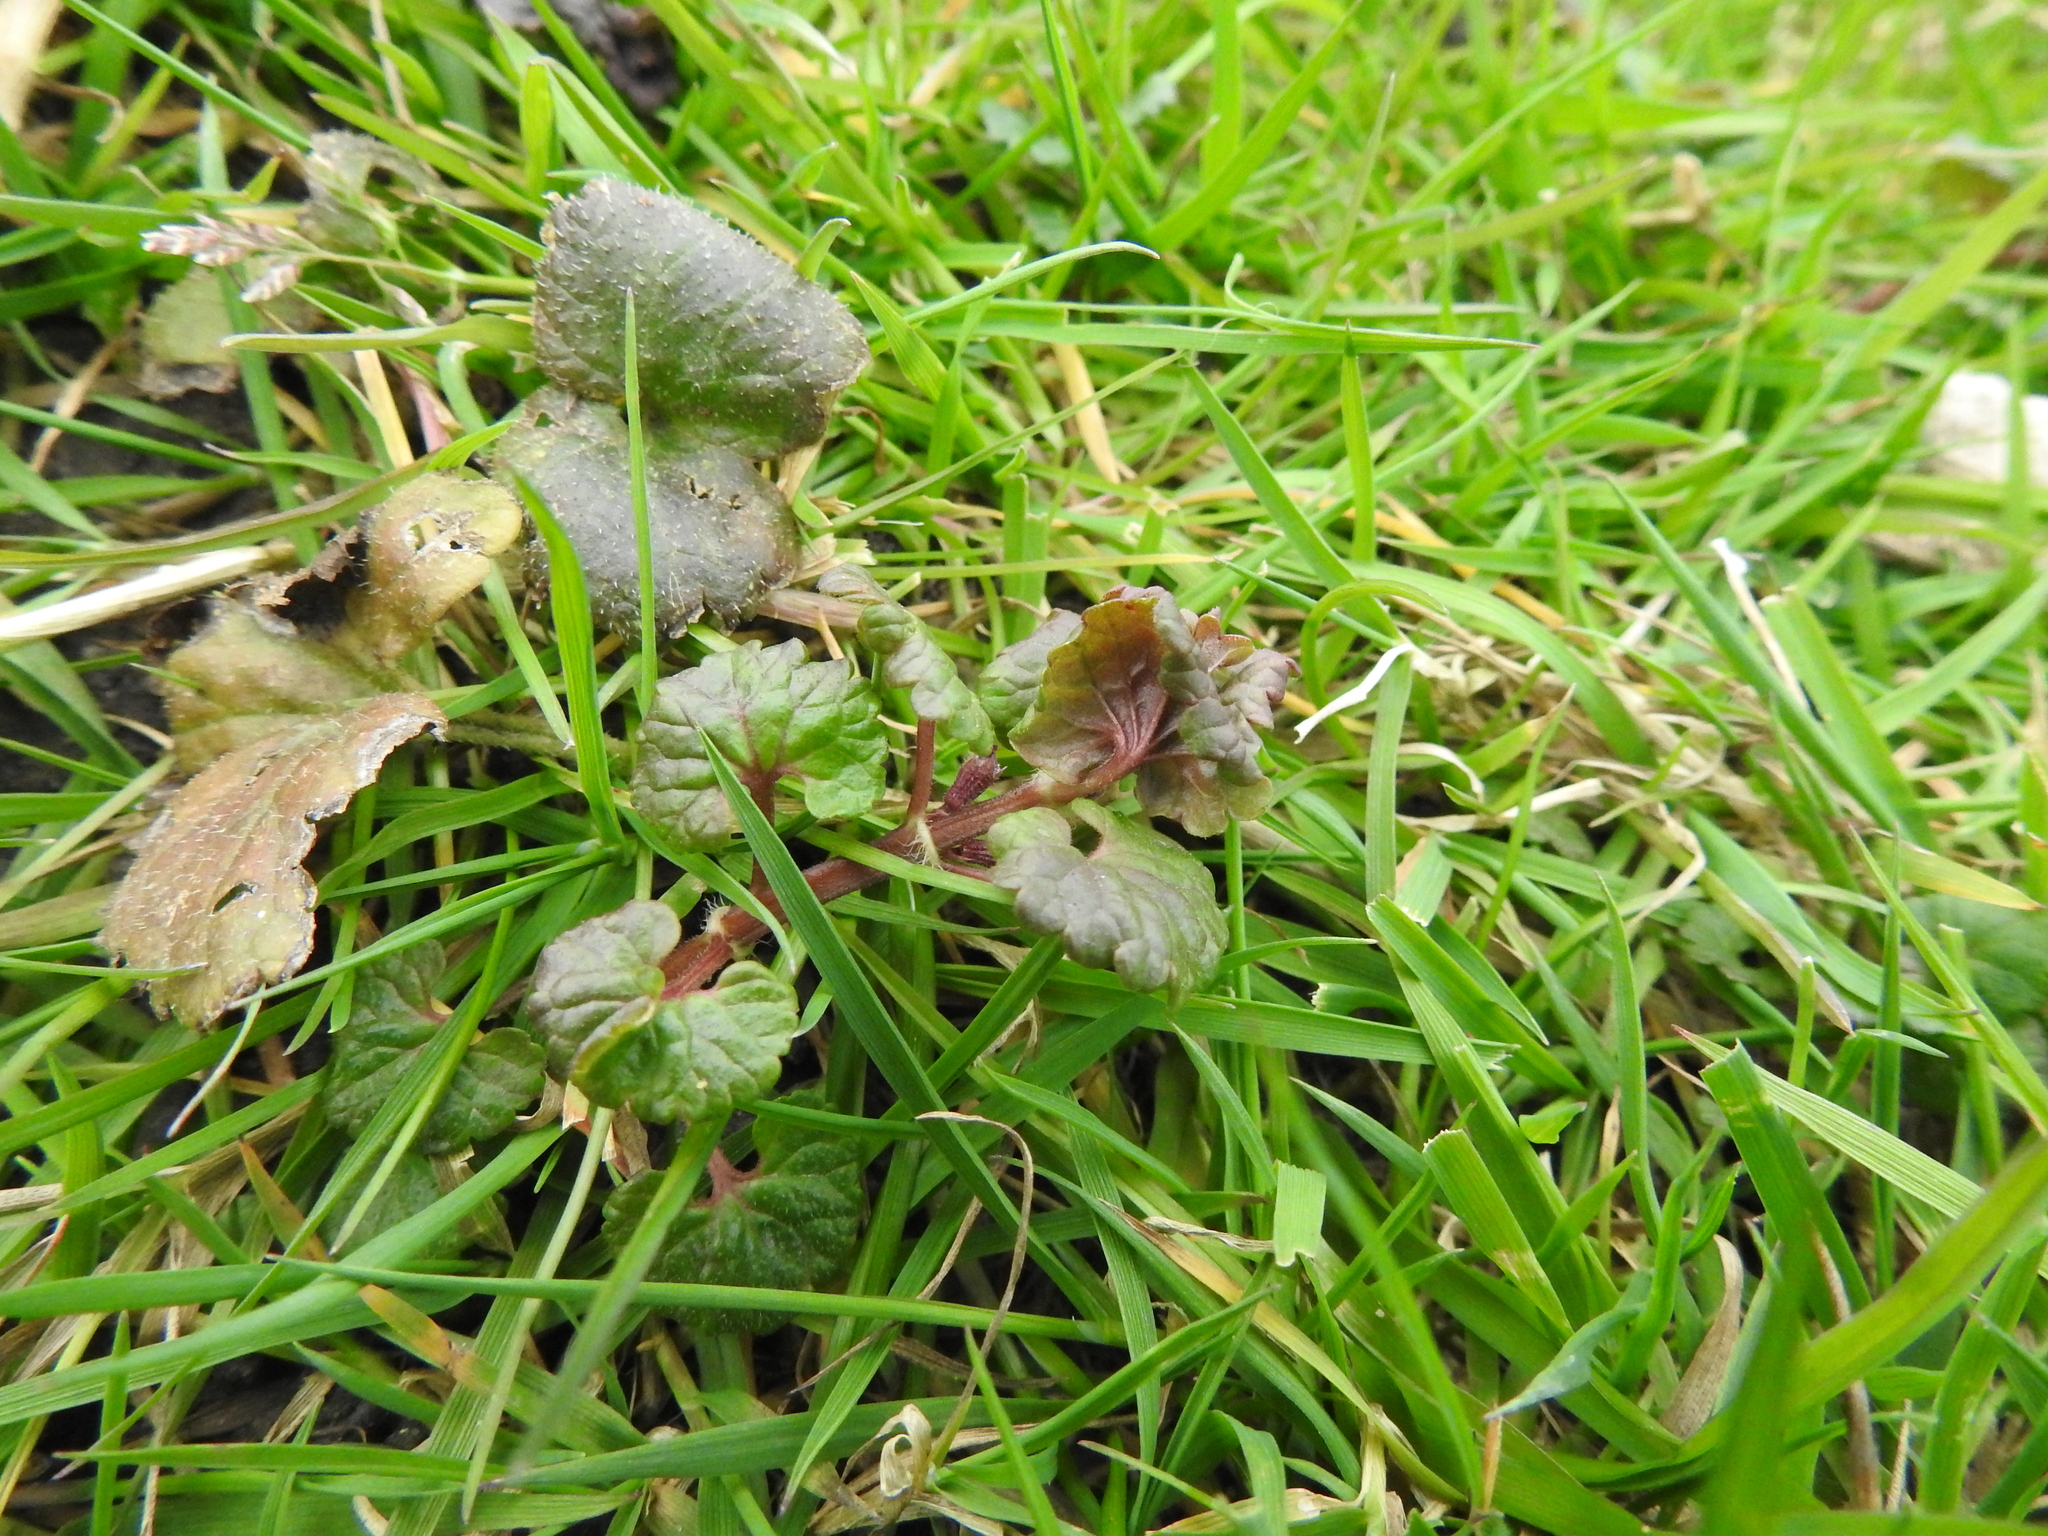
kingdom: Plantae
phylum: Tracheophyta
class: Magnoliopsida
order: Lamiales
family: Lamiaceae
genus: Glechoma
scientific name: Glechoma hederacea
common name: Ground ivy
